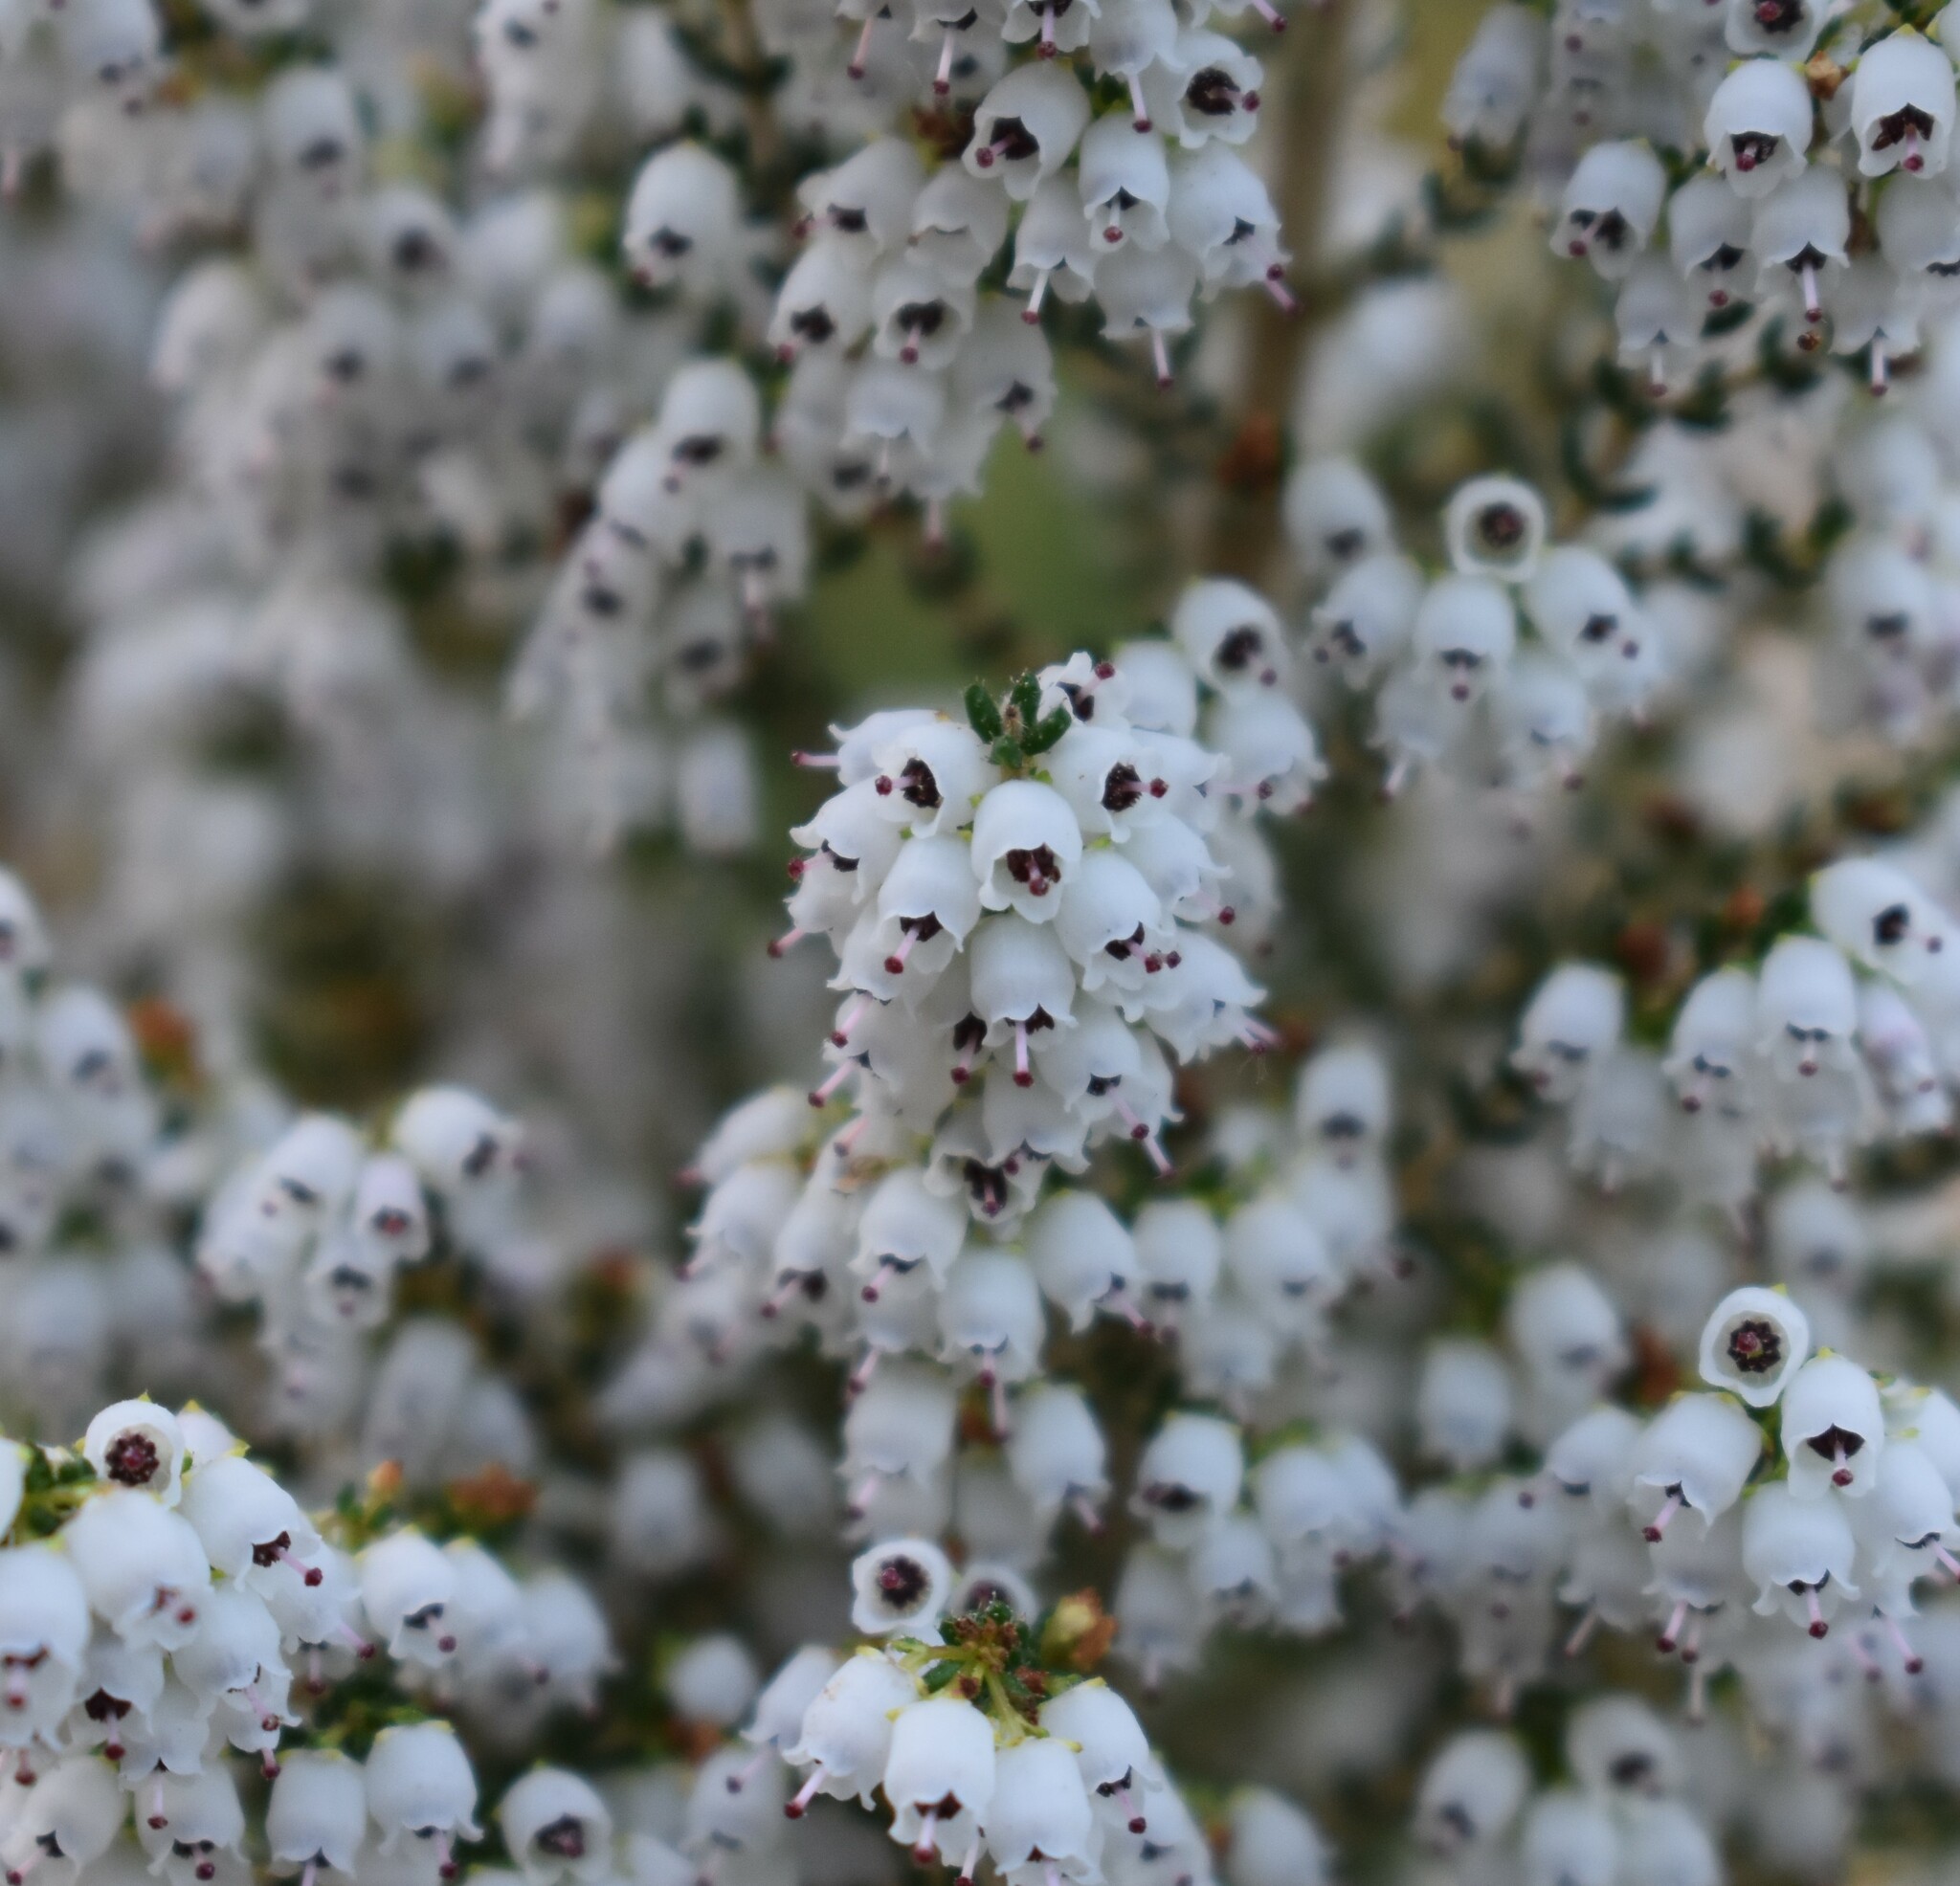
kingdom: Plantae
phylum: Tracheophyta
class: Magnoliopsida
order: Ericales
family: Ericaceae
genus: Erica
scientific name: Erica scabriuscula
